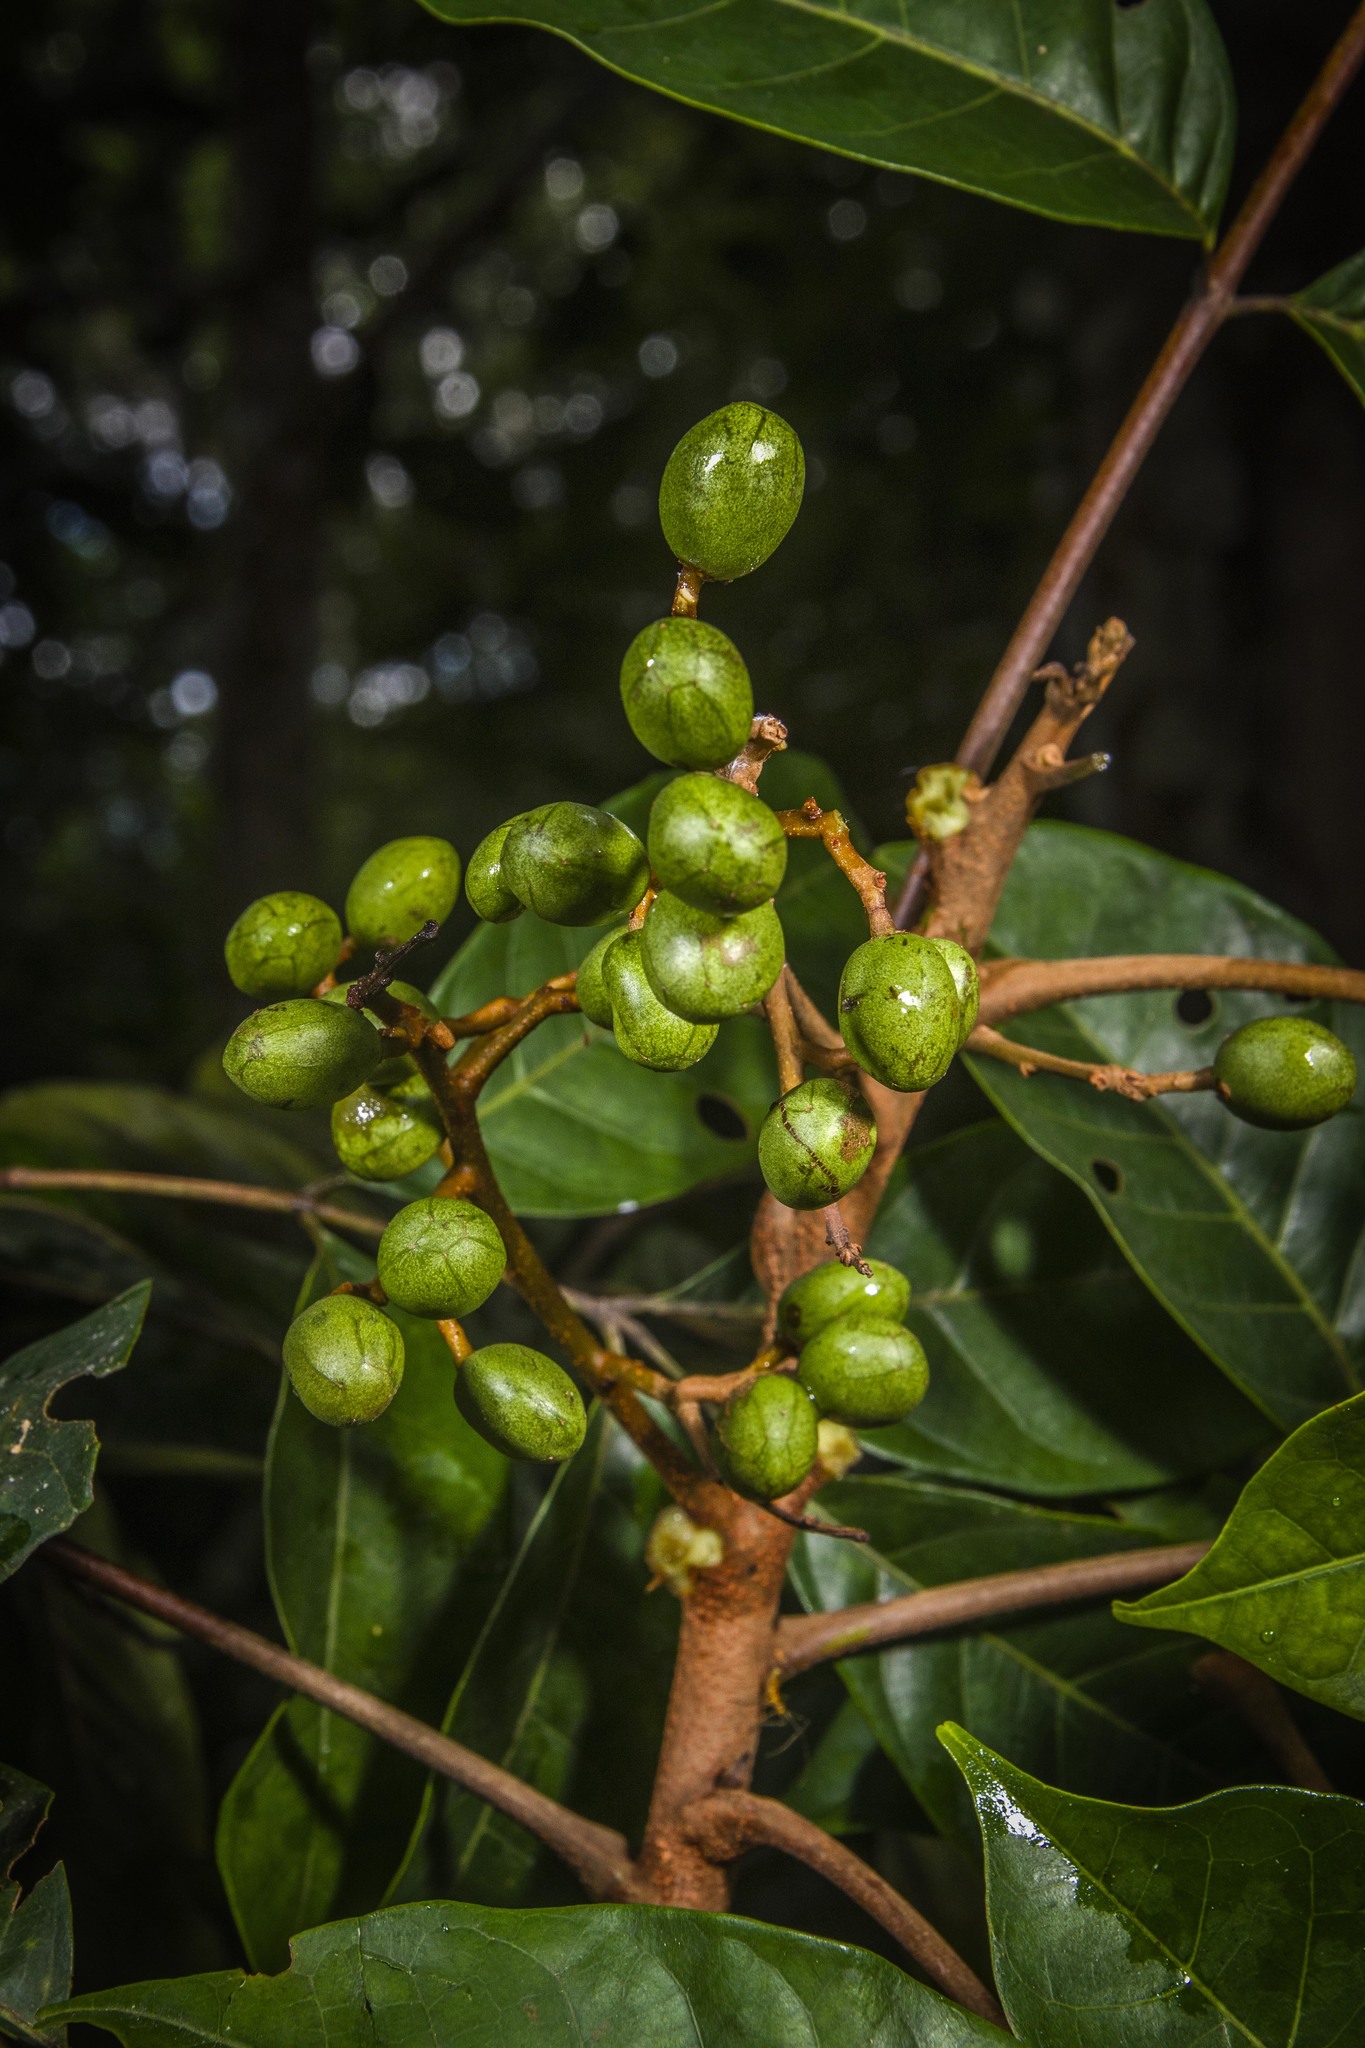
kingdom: Plantae
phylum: Tracheophyta
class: Magnoliopsida
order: Sapindales
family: Anacardiaceae
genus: Tapirira
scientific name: Tapirira guianensis
